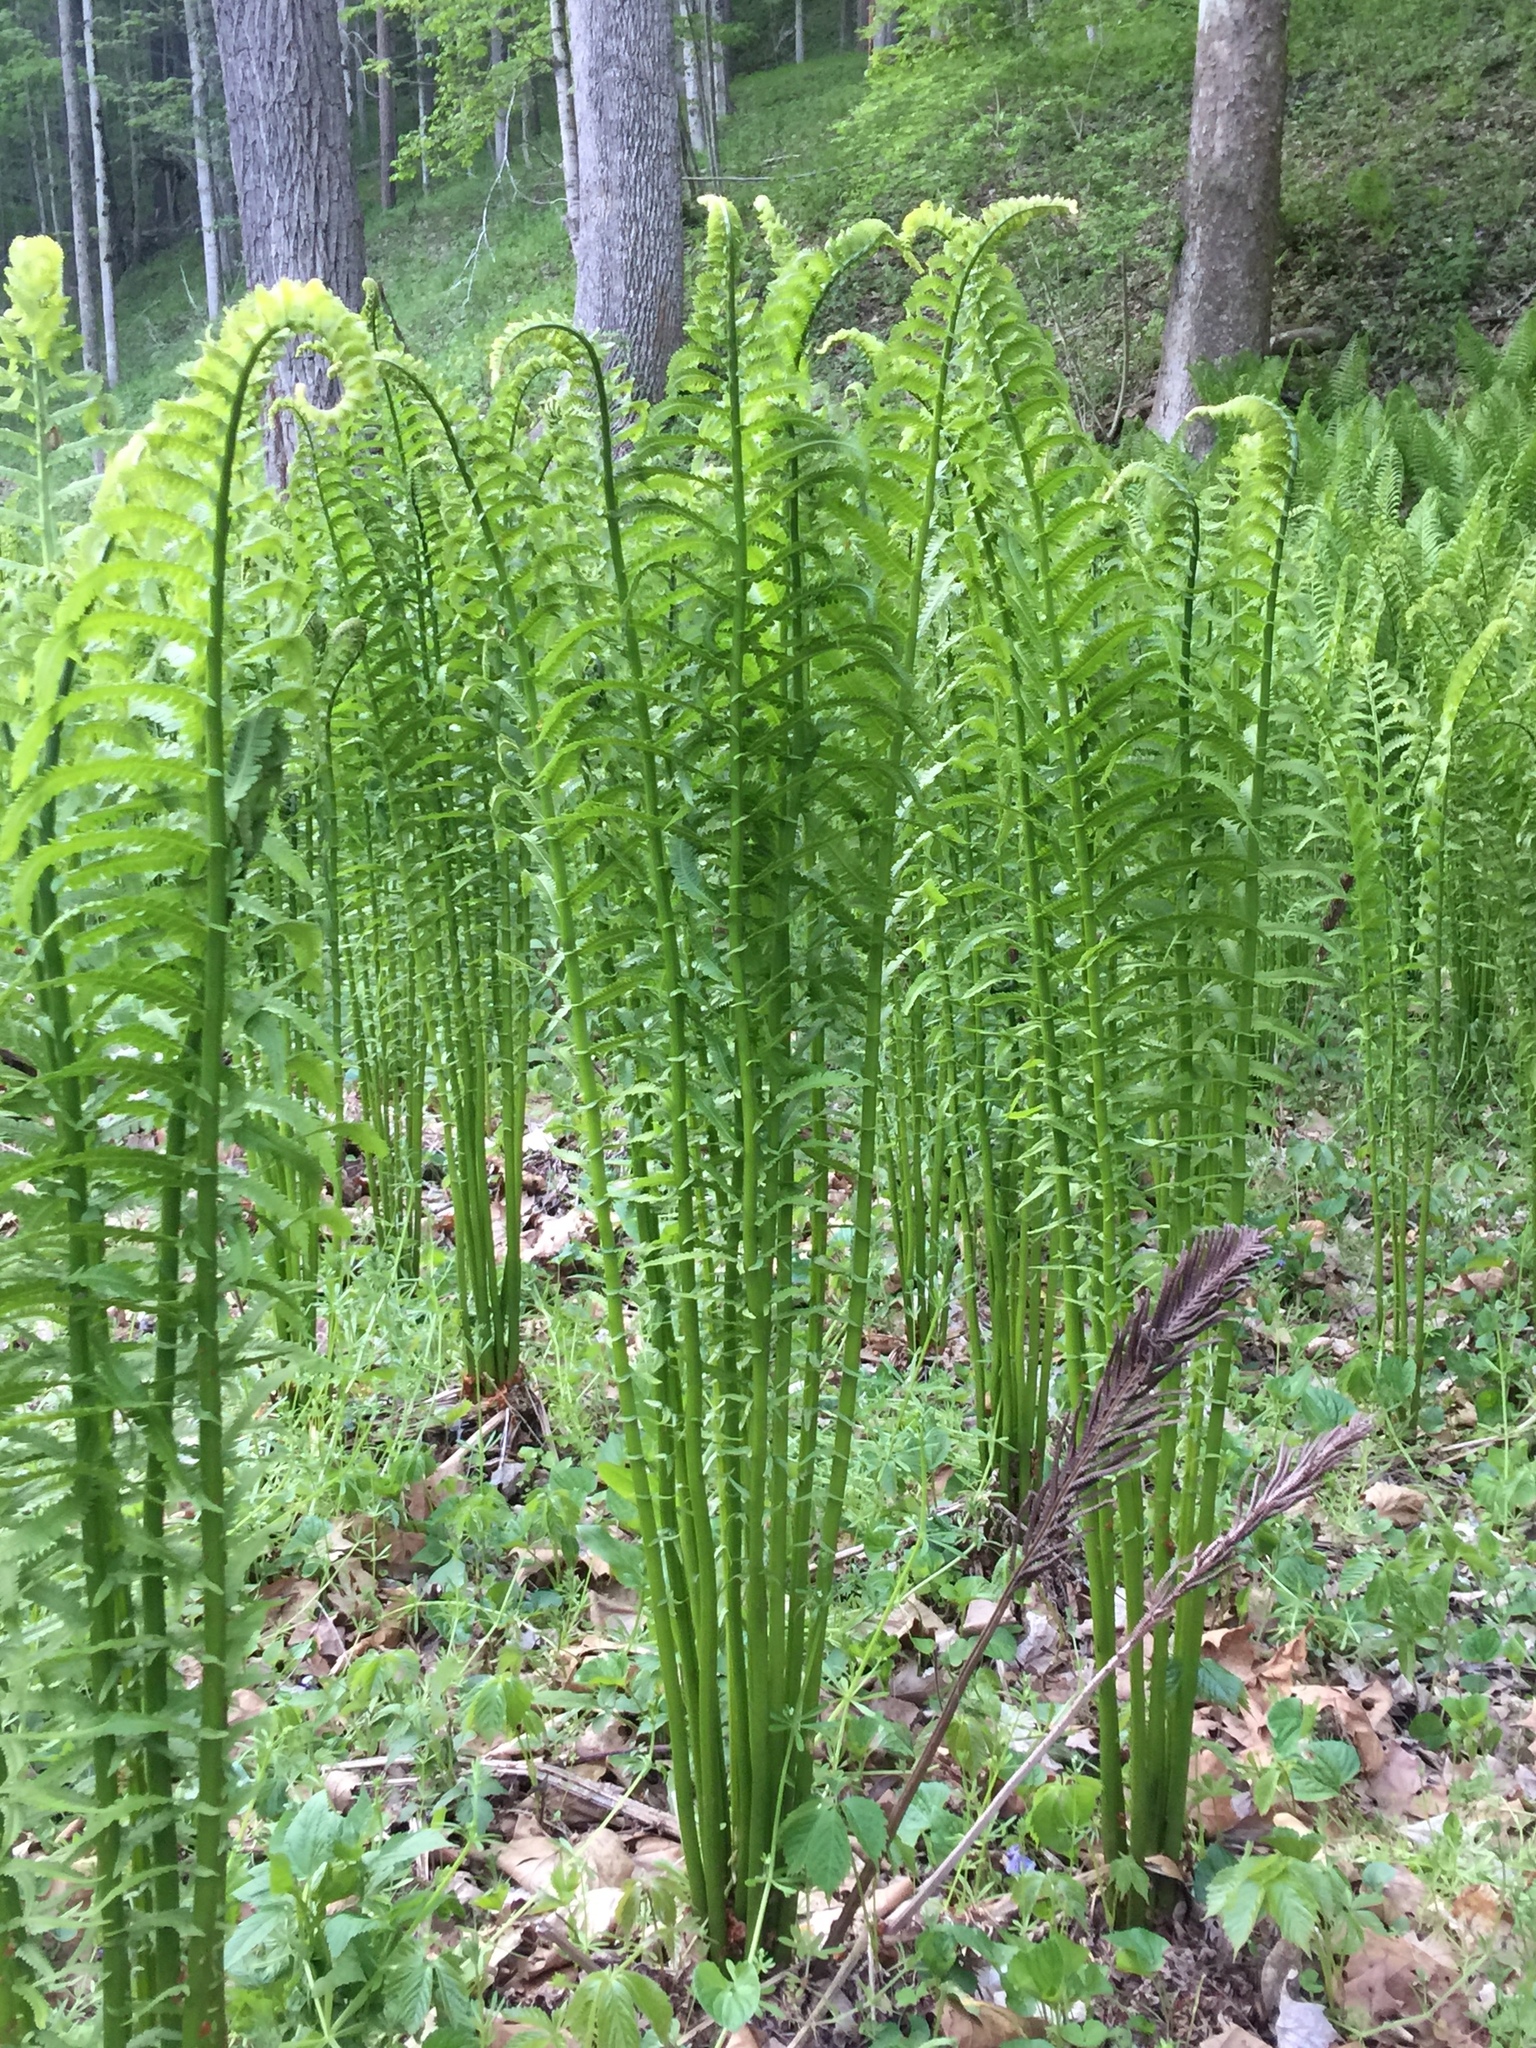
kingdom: Plantae
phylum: Tracheophyta
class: Polypodiopsida
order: Polypodiales
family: Onocleaceae
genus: Matteuccia
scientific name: Matteuccia struthiopteris
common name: Ostrich fern
